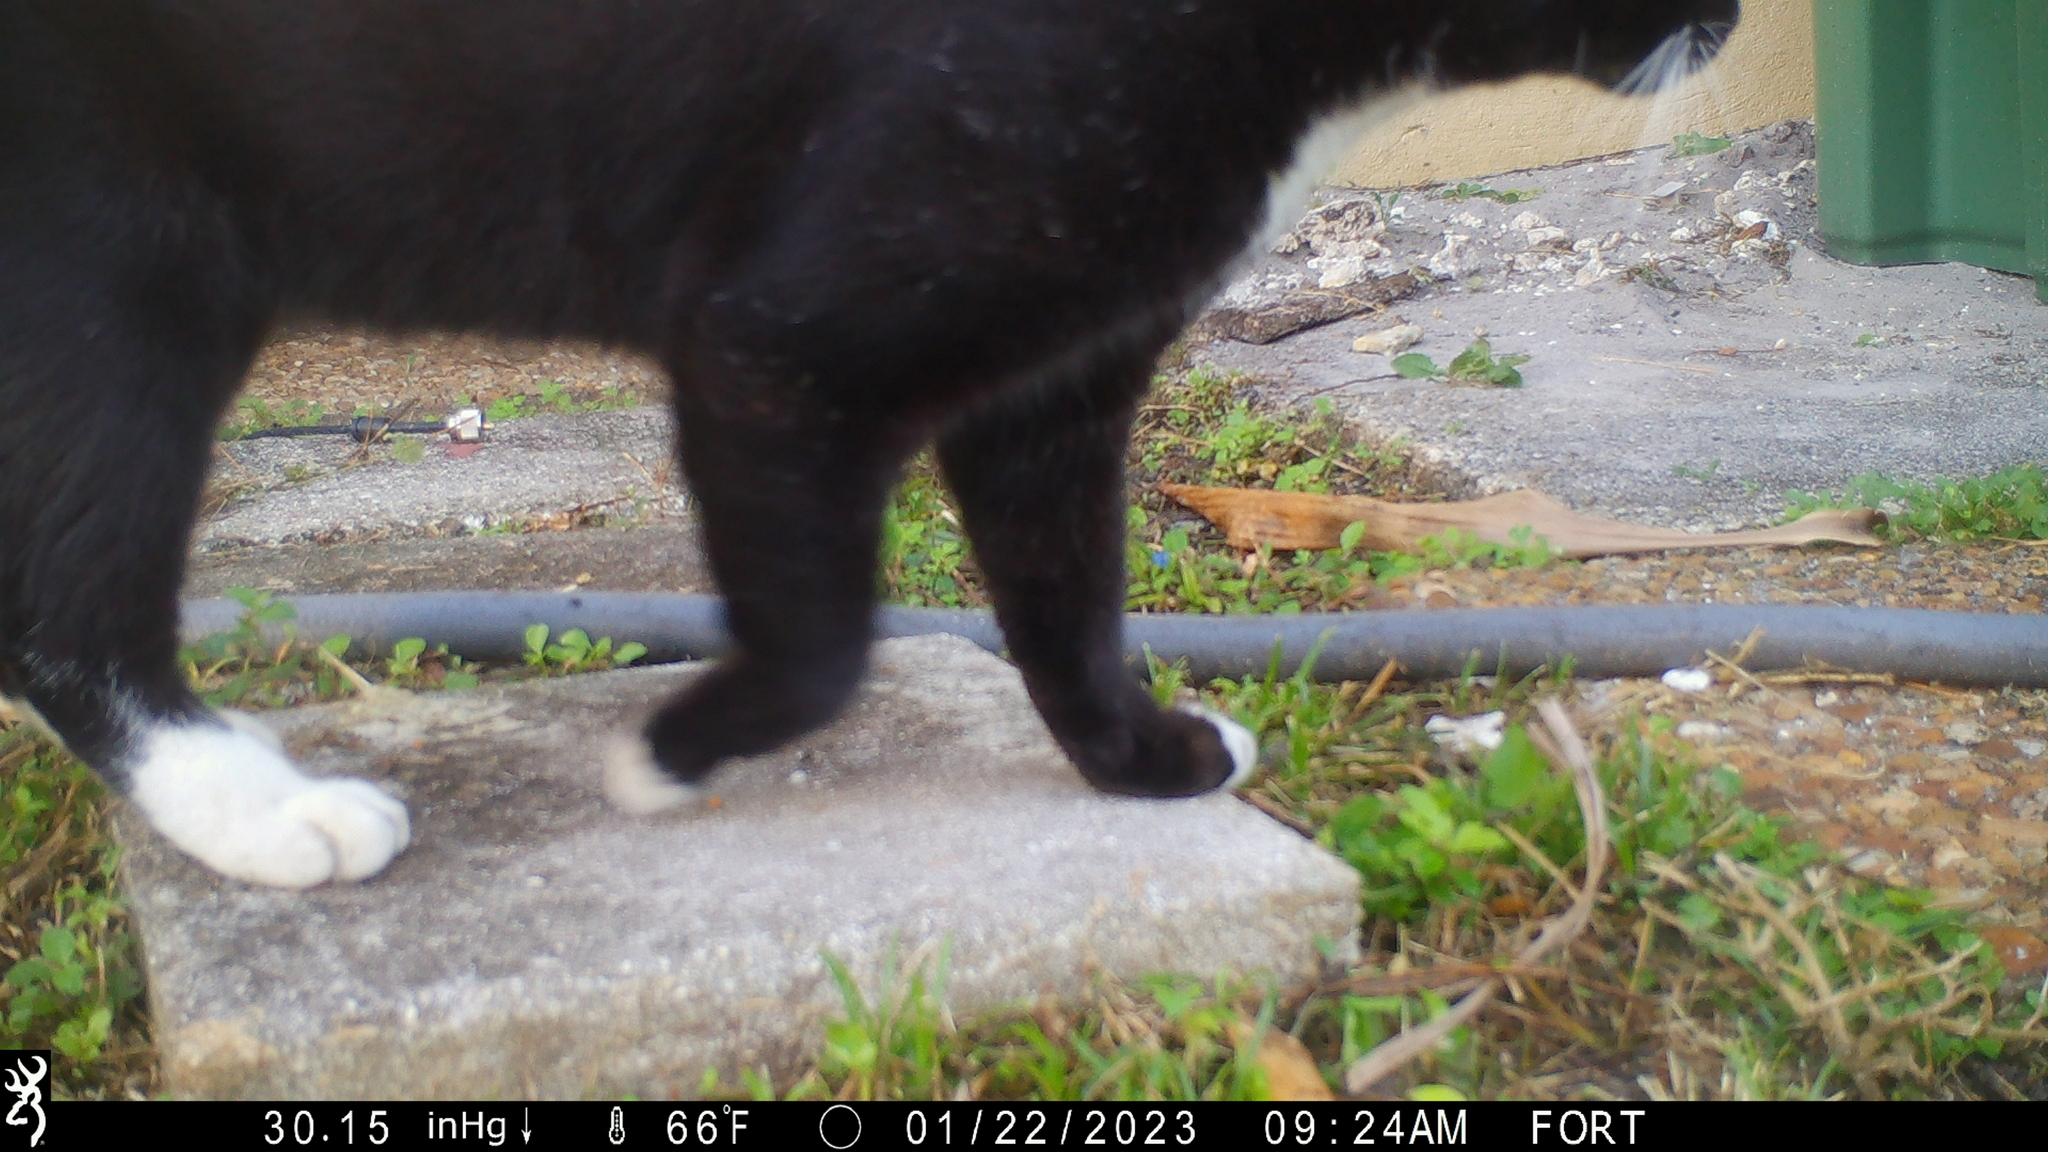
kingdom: Animalia
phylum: Chordata
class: Mammalia
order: Carnivora
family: Felidae
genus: Felis
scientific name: Felis catus
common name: Domestic cat
